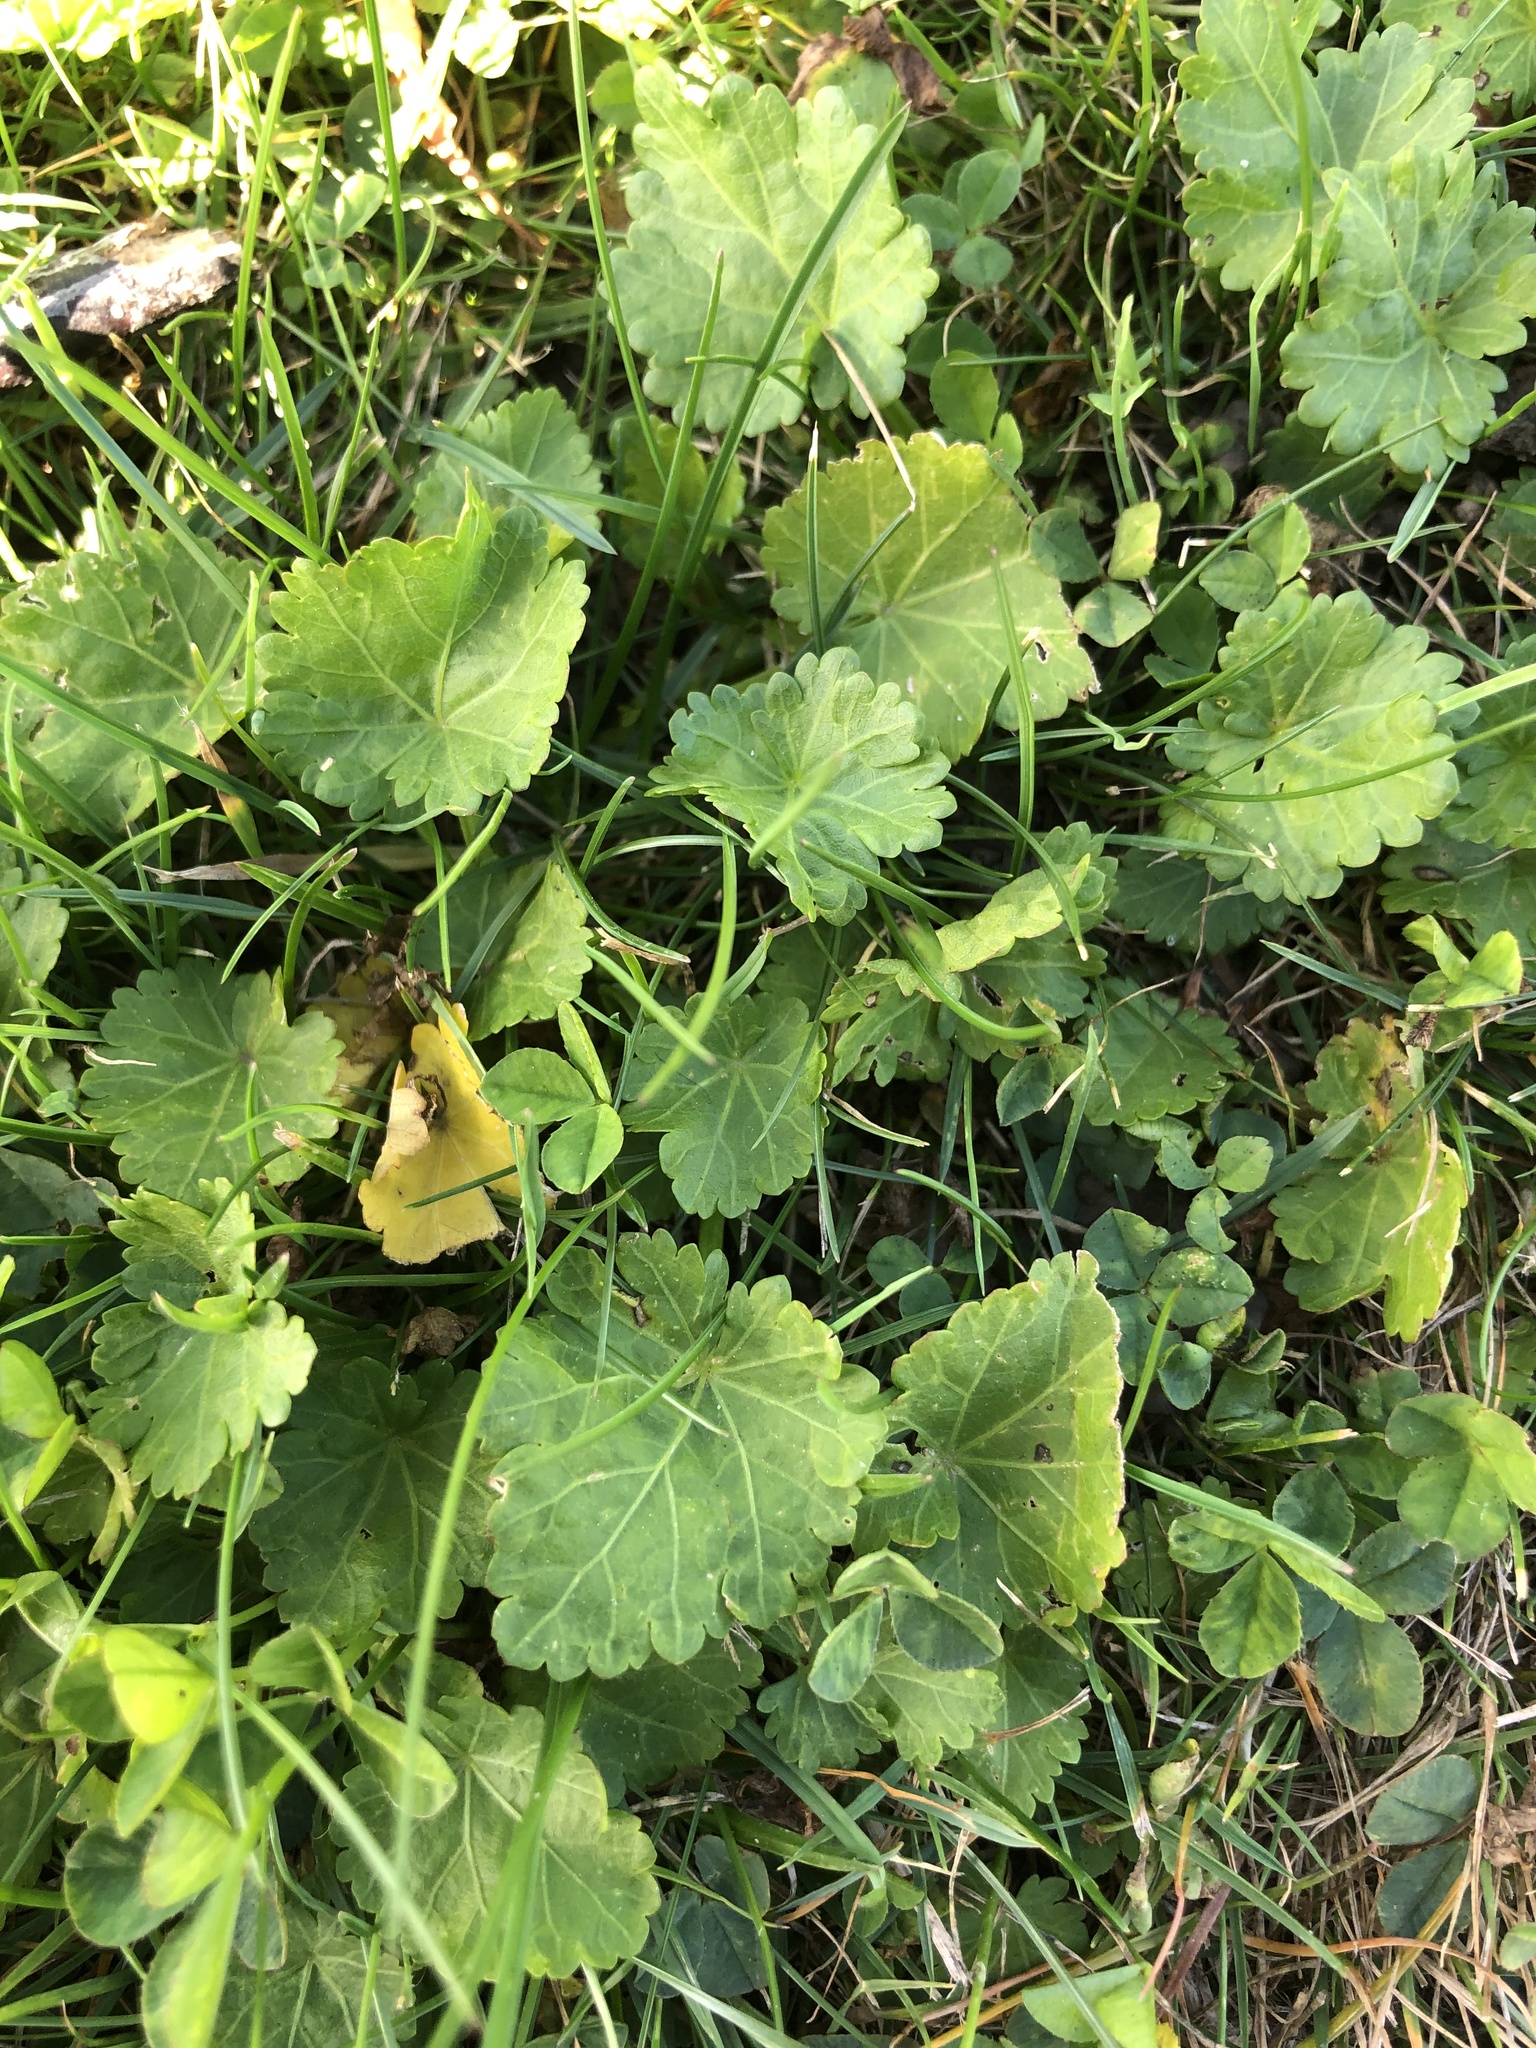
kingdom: Plantae
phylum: Tracheophyta
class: Magnoliopsida
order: Malvales
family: Malvaceae
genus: Modiola
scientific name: Modiola caroliniana
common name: Carolina bristlemallow
